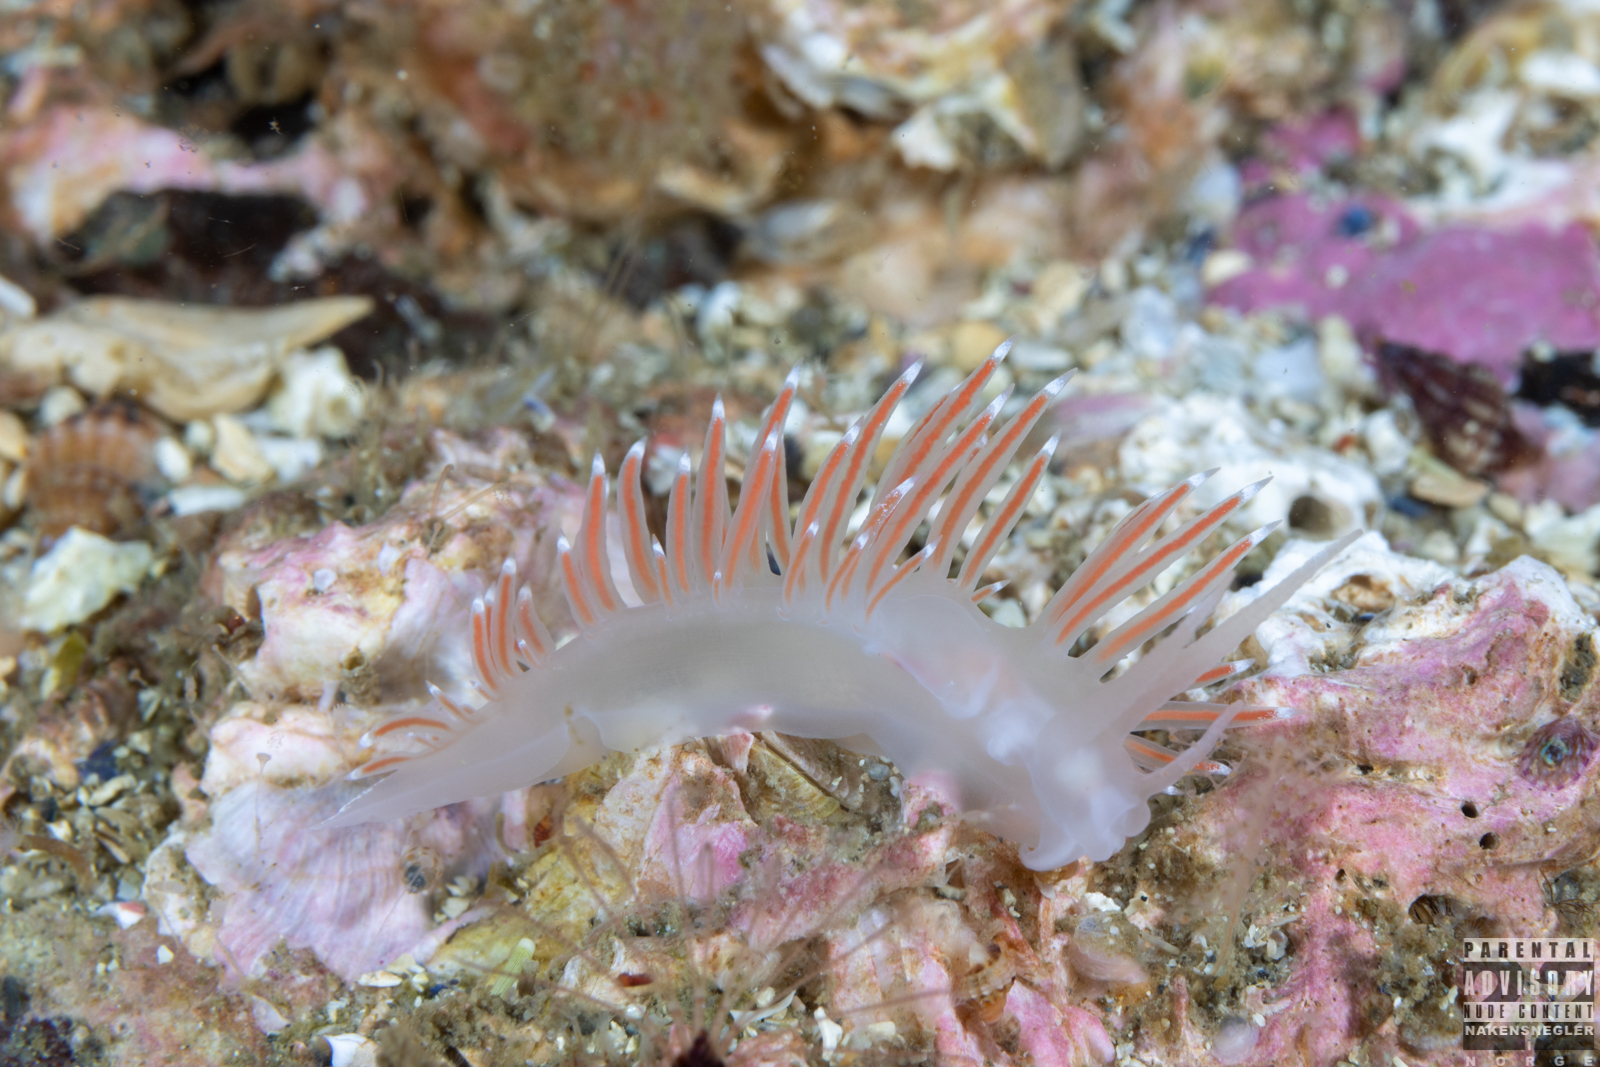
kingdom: Animalia
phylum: Mollusca
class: Gastropoda
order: Nudibranchia
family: Coryphellidae
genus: Coryphella
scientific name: Coryphella browni
